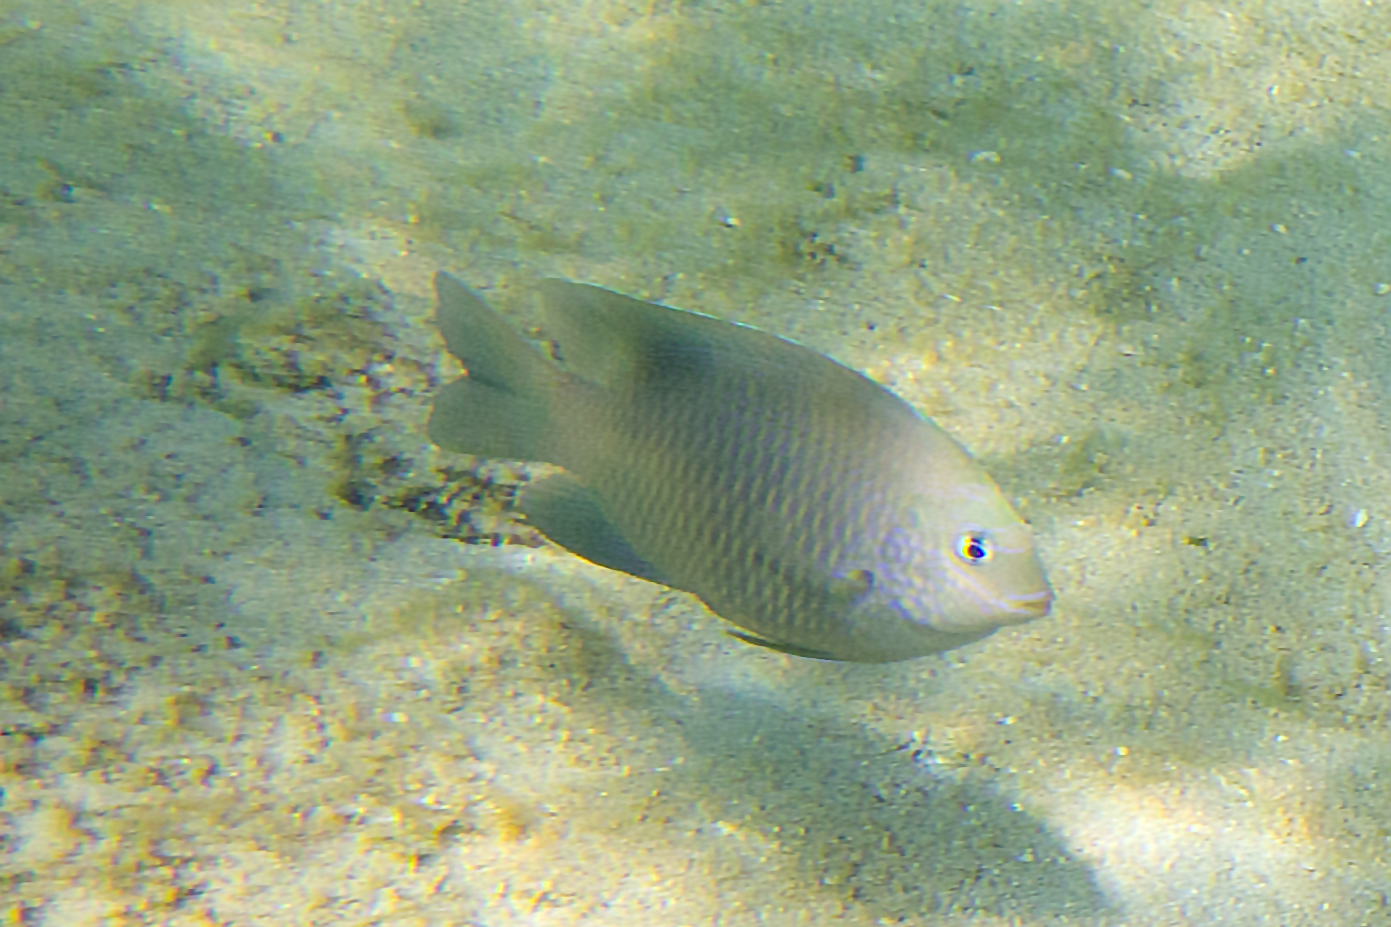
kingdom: Animalia
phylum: Chordata
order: Perciformes
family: Pomacentridae
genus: Dischistodus
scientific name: Dischistodus perspicillatus
